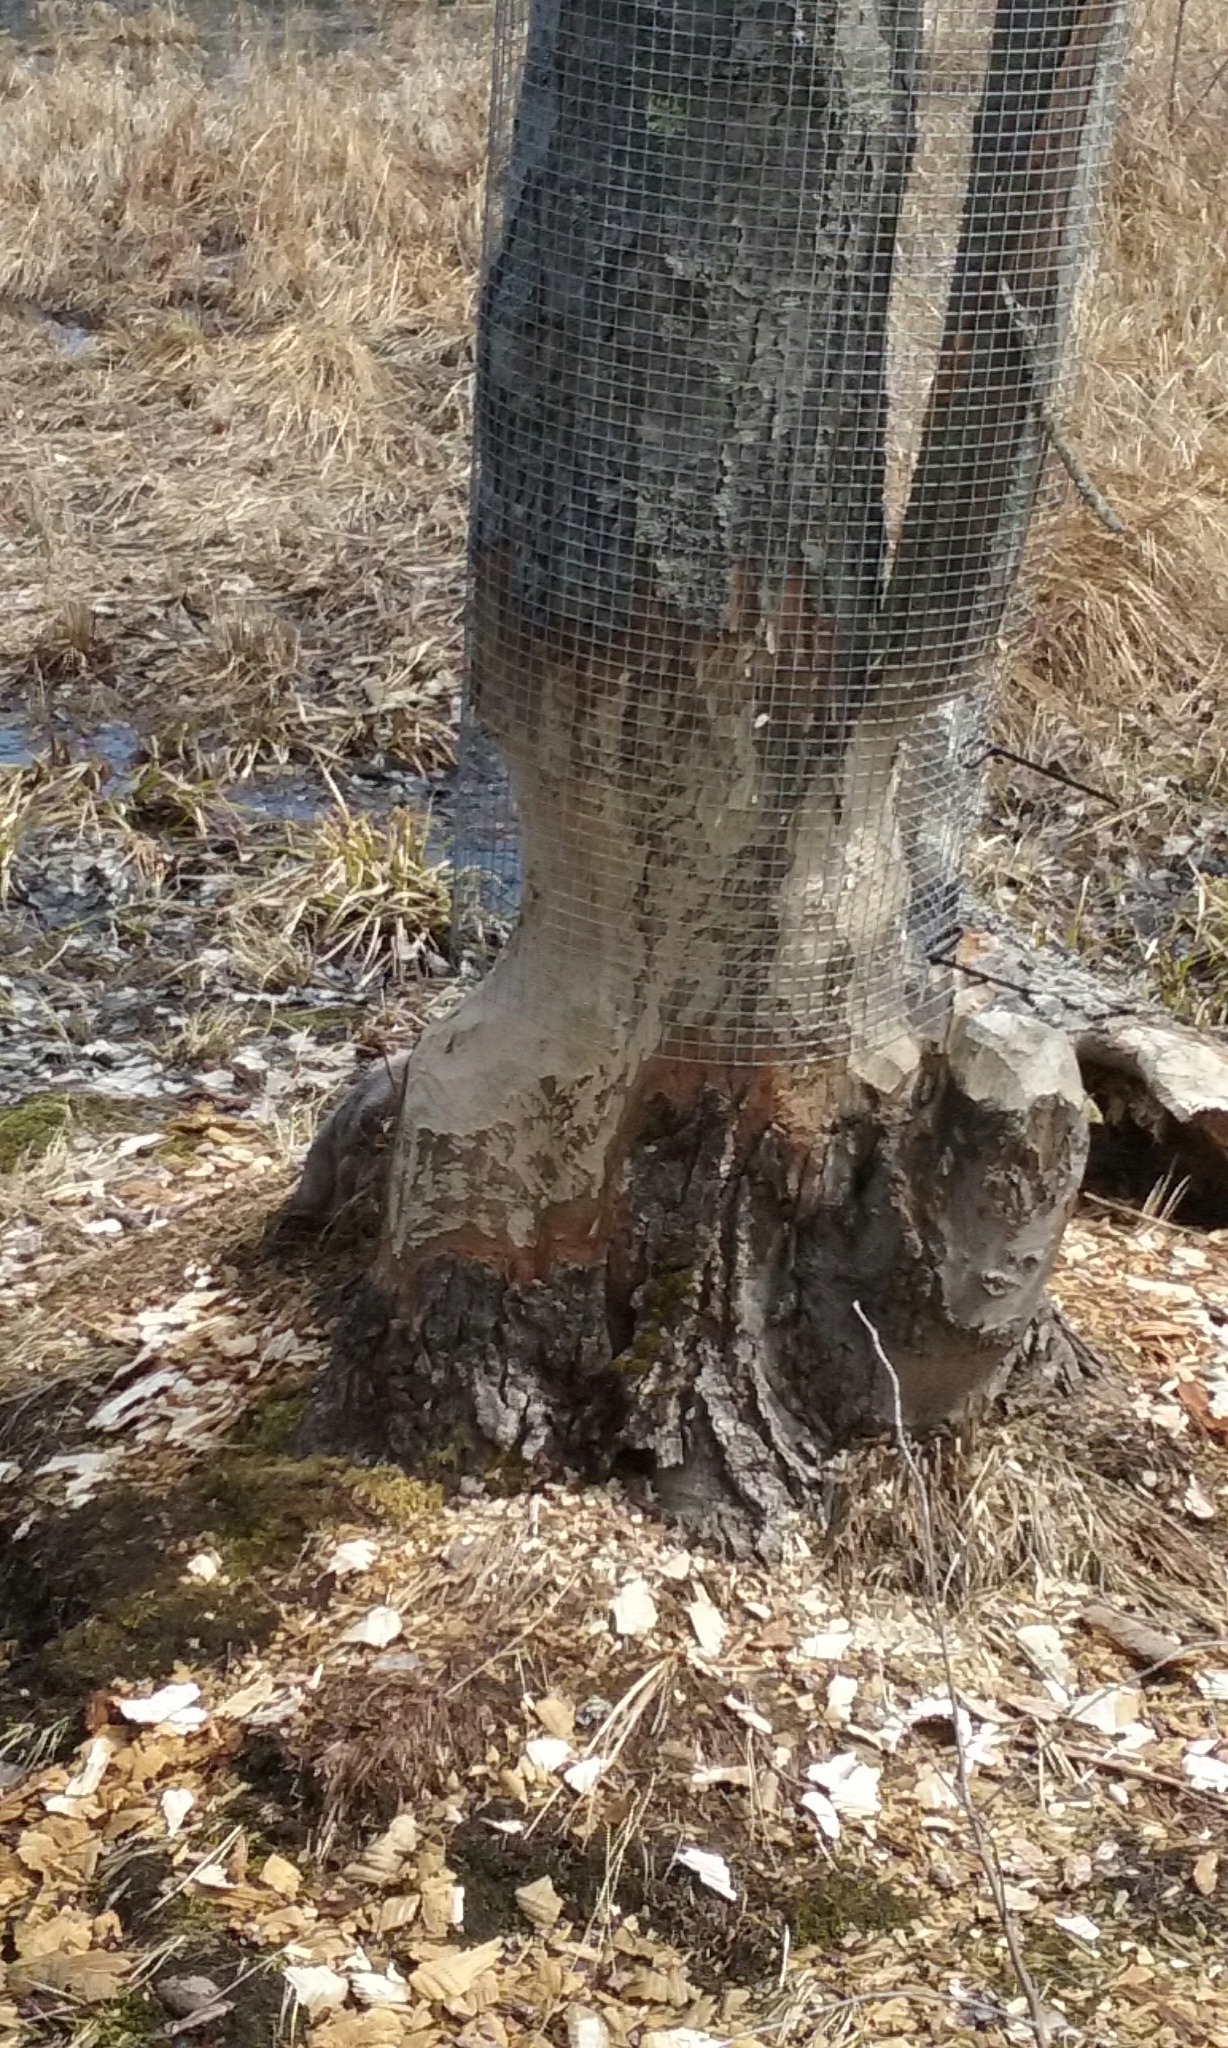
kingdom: Animalia
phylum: Chordata
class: Mammalia
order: Rodentia
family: Castoridae
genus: Castor
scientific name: Castor canadensis
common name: American beaver
